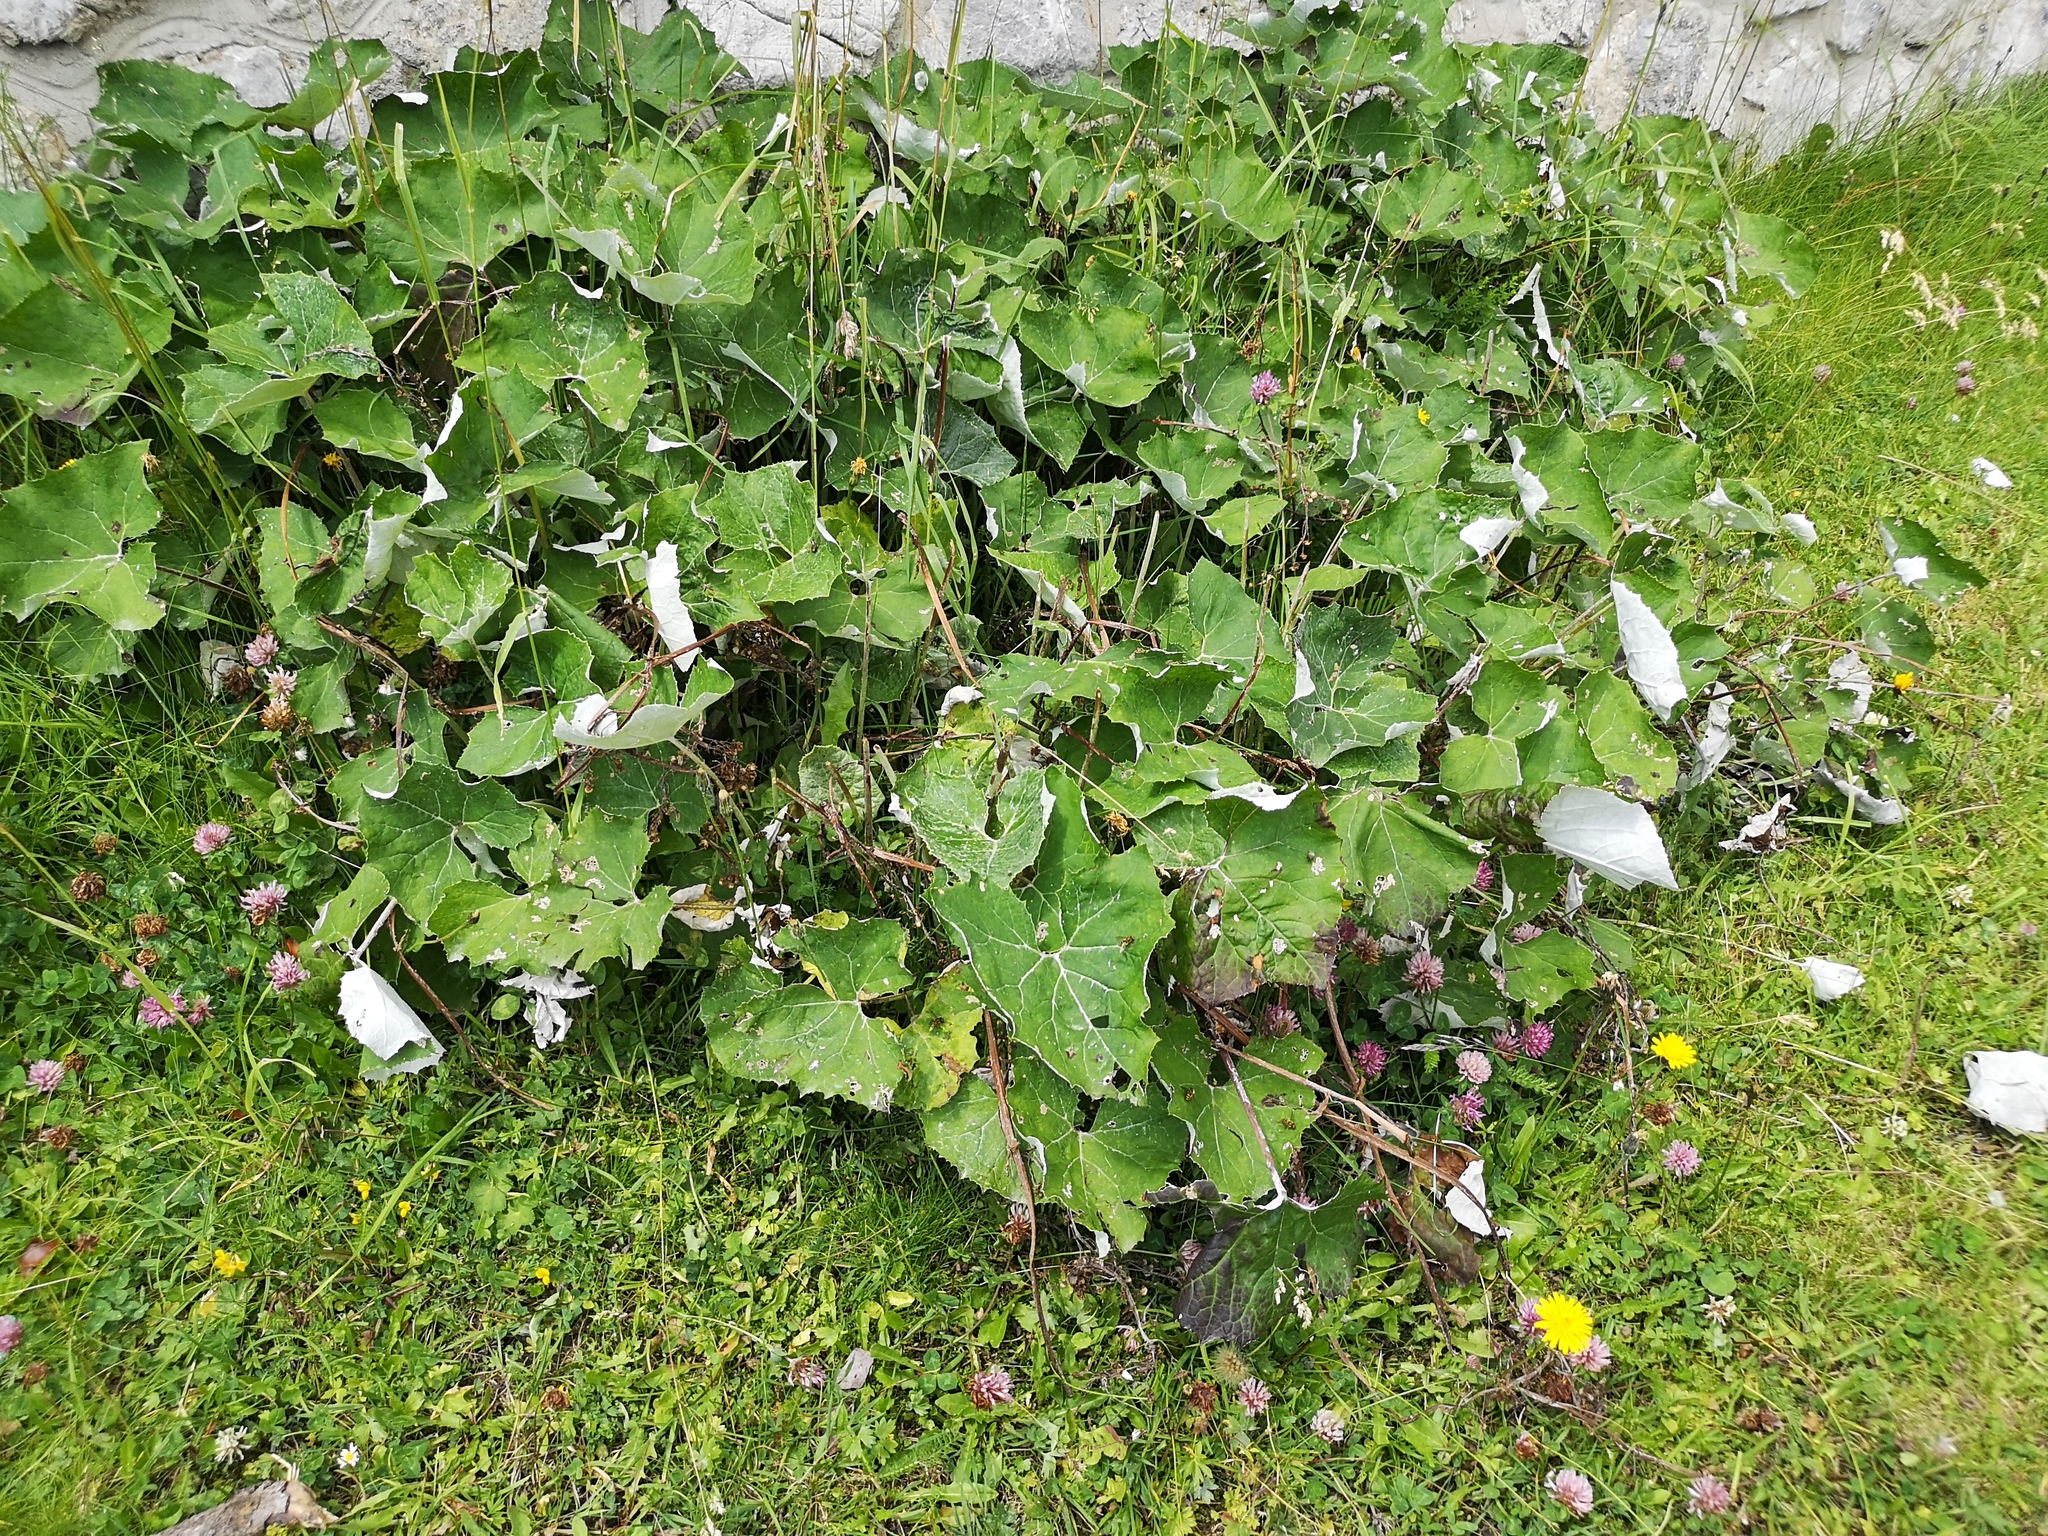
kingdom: Plantae
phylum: Tracheophyta
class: Magnoliopsida
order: Asterales
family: Asteraceae
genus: Petasites
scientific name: Petasites paradoxus
